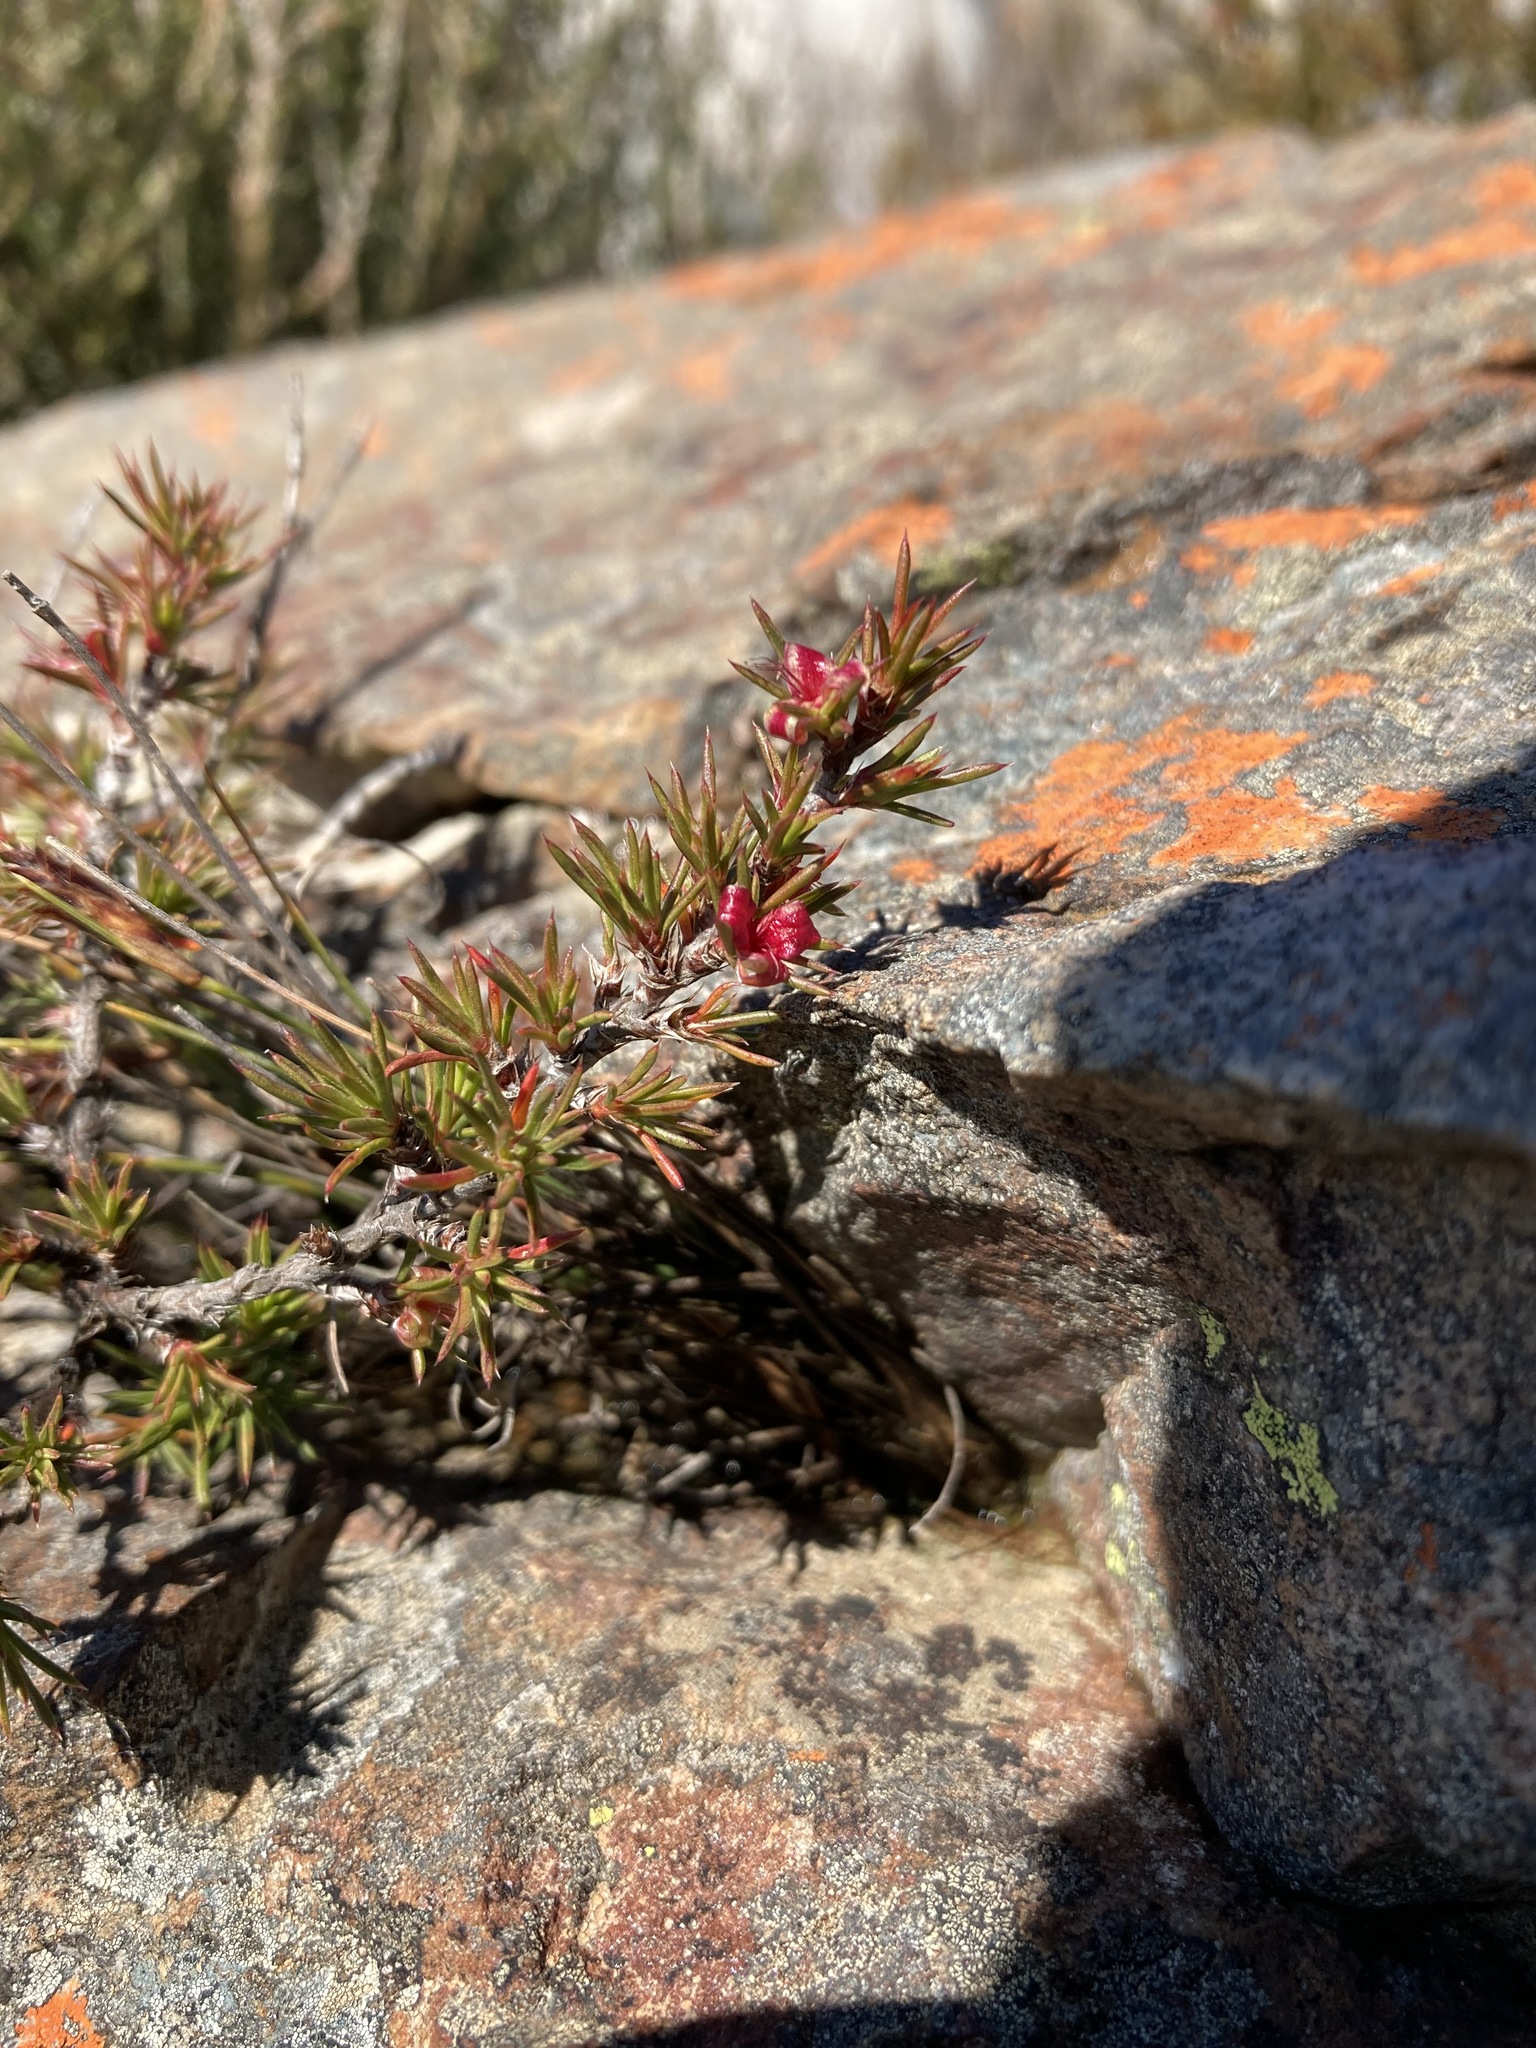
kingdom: Plantae
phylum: Tracheophyta
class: Magnoliopsida
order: Rosales
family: Rosaceae
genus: Cliffortia
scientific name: Cliffortia neglecta
